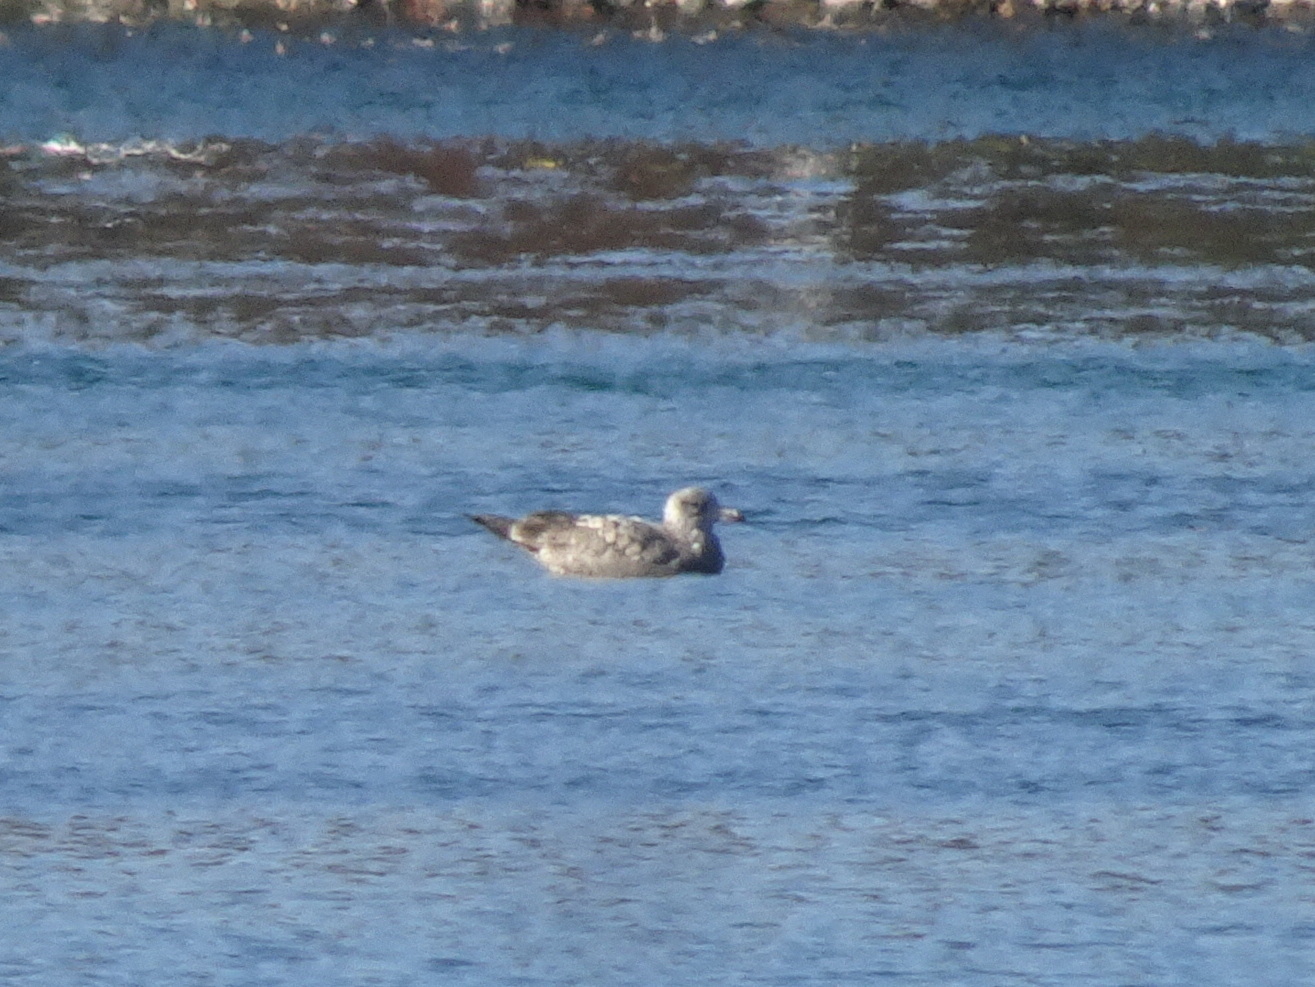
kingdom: Animalia
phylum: Chordata
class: Aves
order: Charadriiformes
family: Laridae
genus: Larus
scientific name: Larus argentatus
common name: Herring gull
